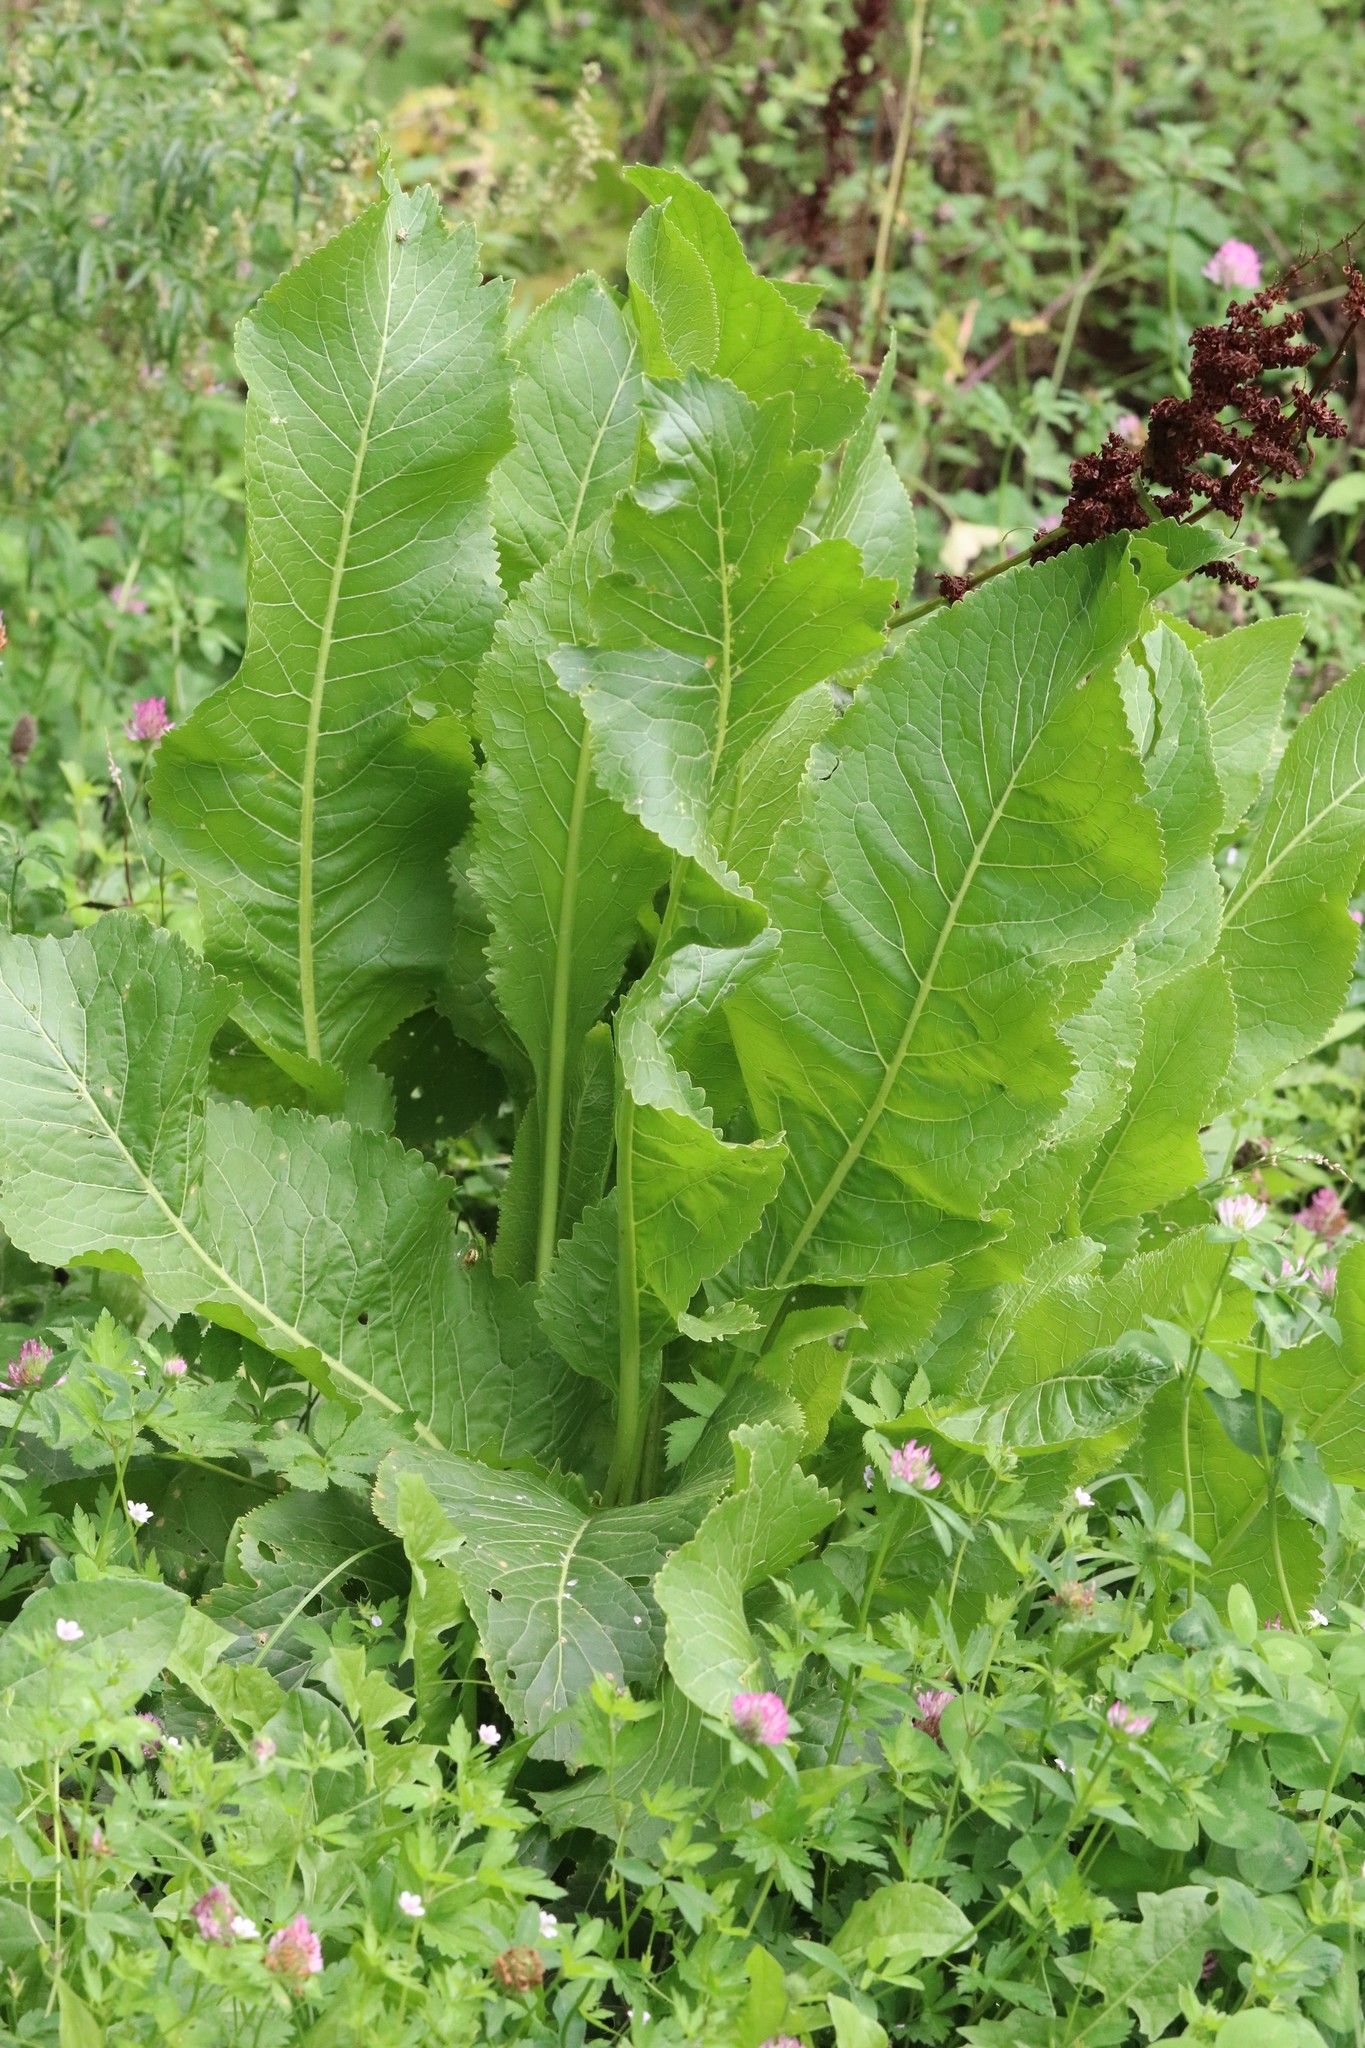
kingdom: Plantae
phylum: Tracheophyta
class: Magnoliopsida
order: Brassicales
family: Brassicaceae
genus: Armoracia
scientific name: Armoracia rusticana
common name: Horseradish
